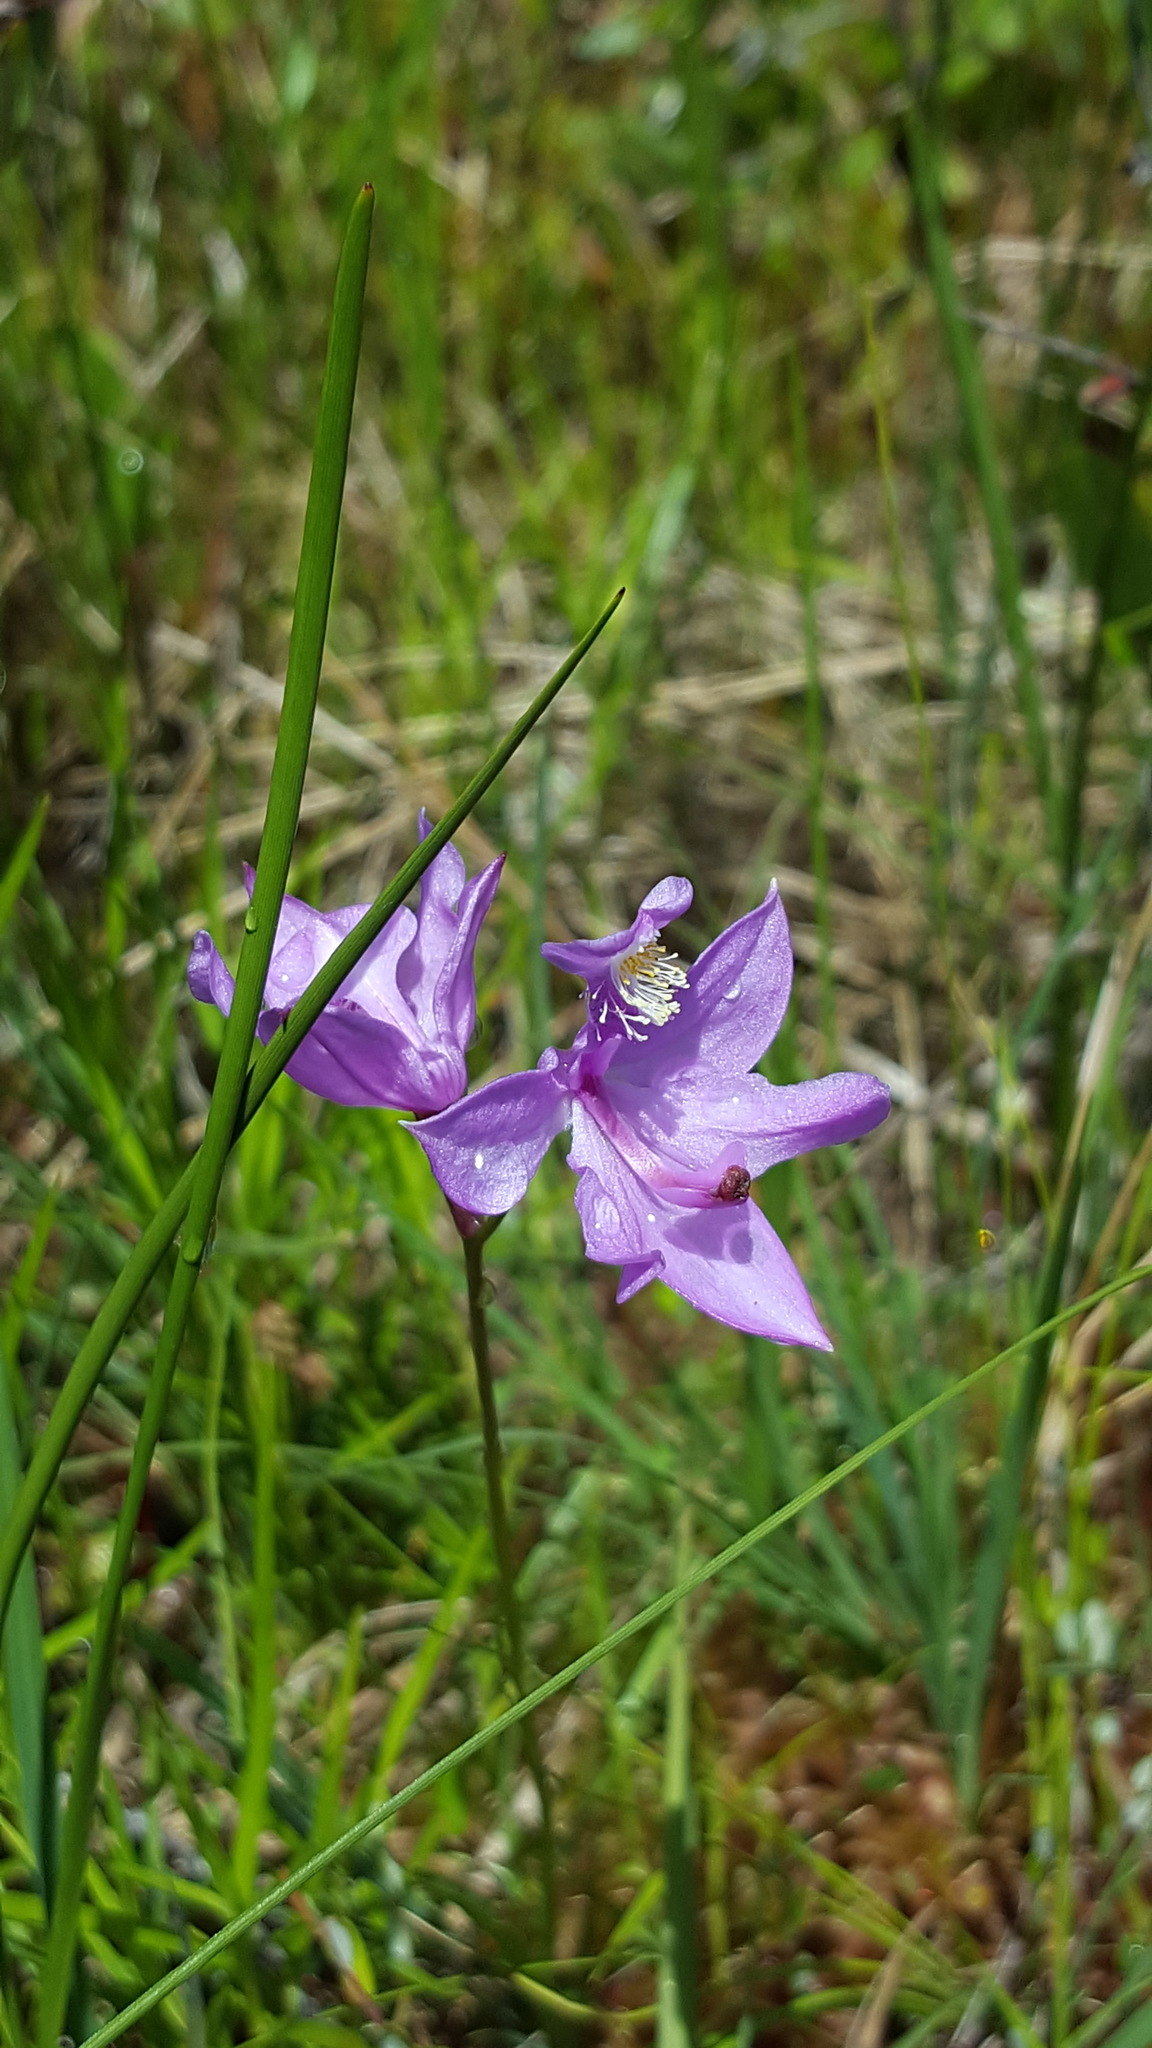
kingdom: Plantae
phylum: Tracheophyta
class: Liliopsida
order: Asparagales
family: Orchidaceae
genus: Calopogon
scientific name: Calopogon tuberosus
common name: Grass-pink
